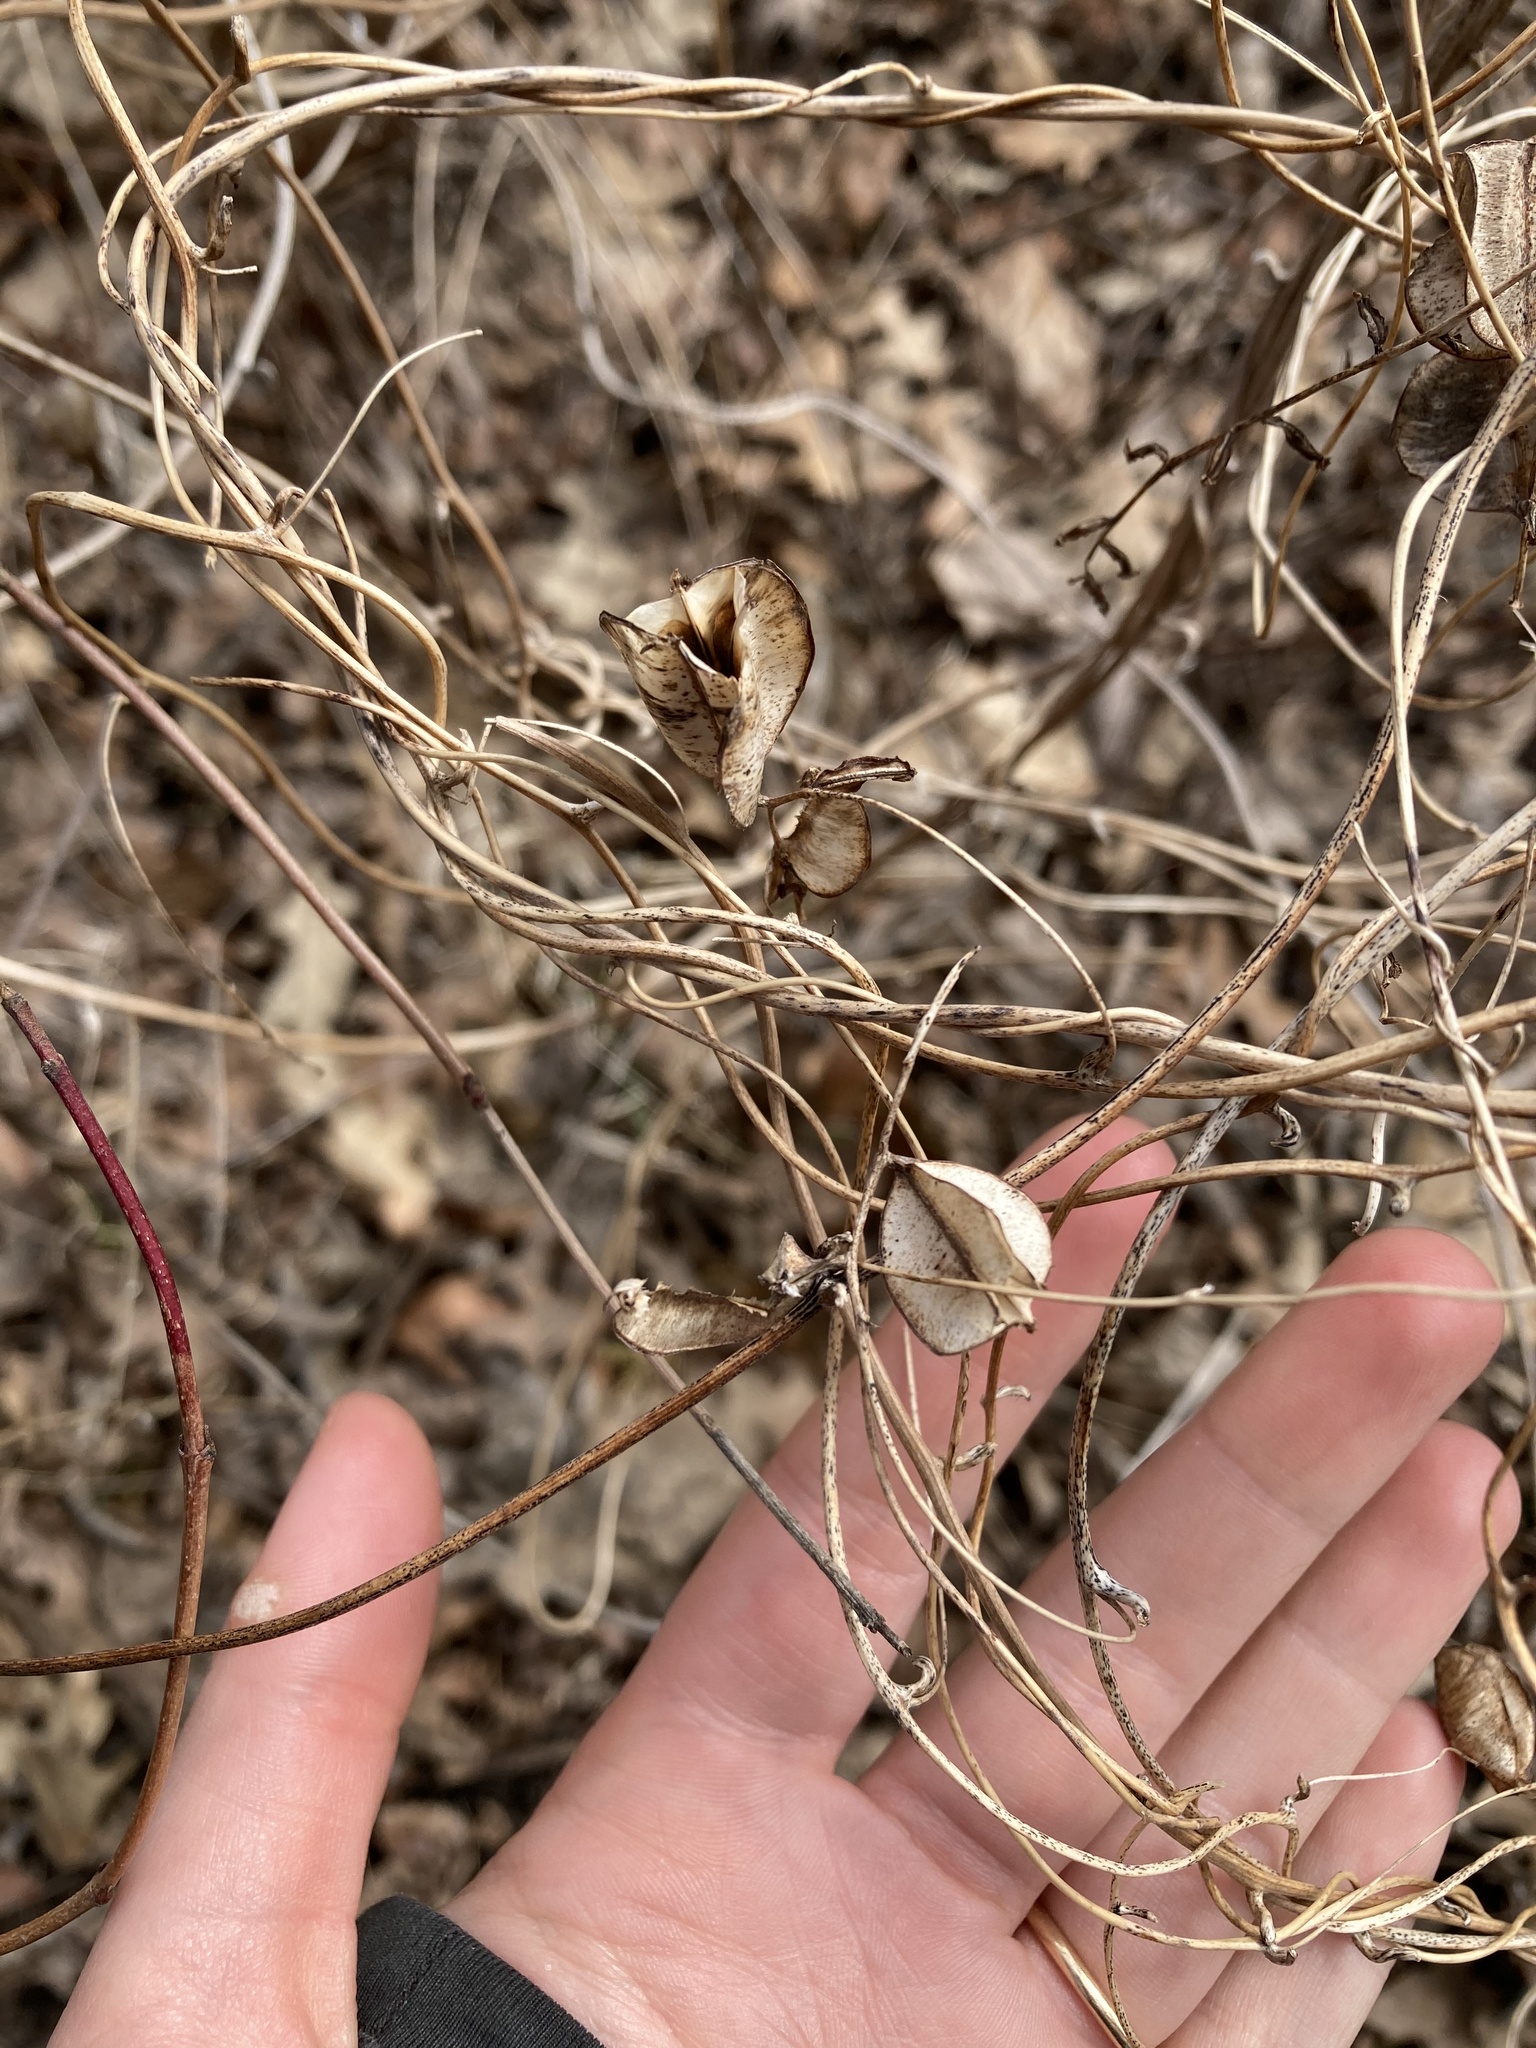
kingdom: Plantae
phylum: Tracheophyta
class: Liliopsida
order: Dioscoreales
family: Dioscoreaceae
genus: Dioscorea
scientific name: Dioscorea villosa
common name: Wild yam
